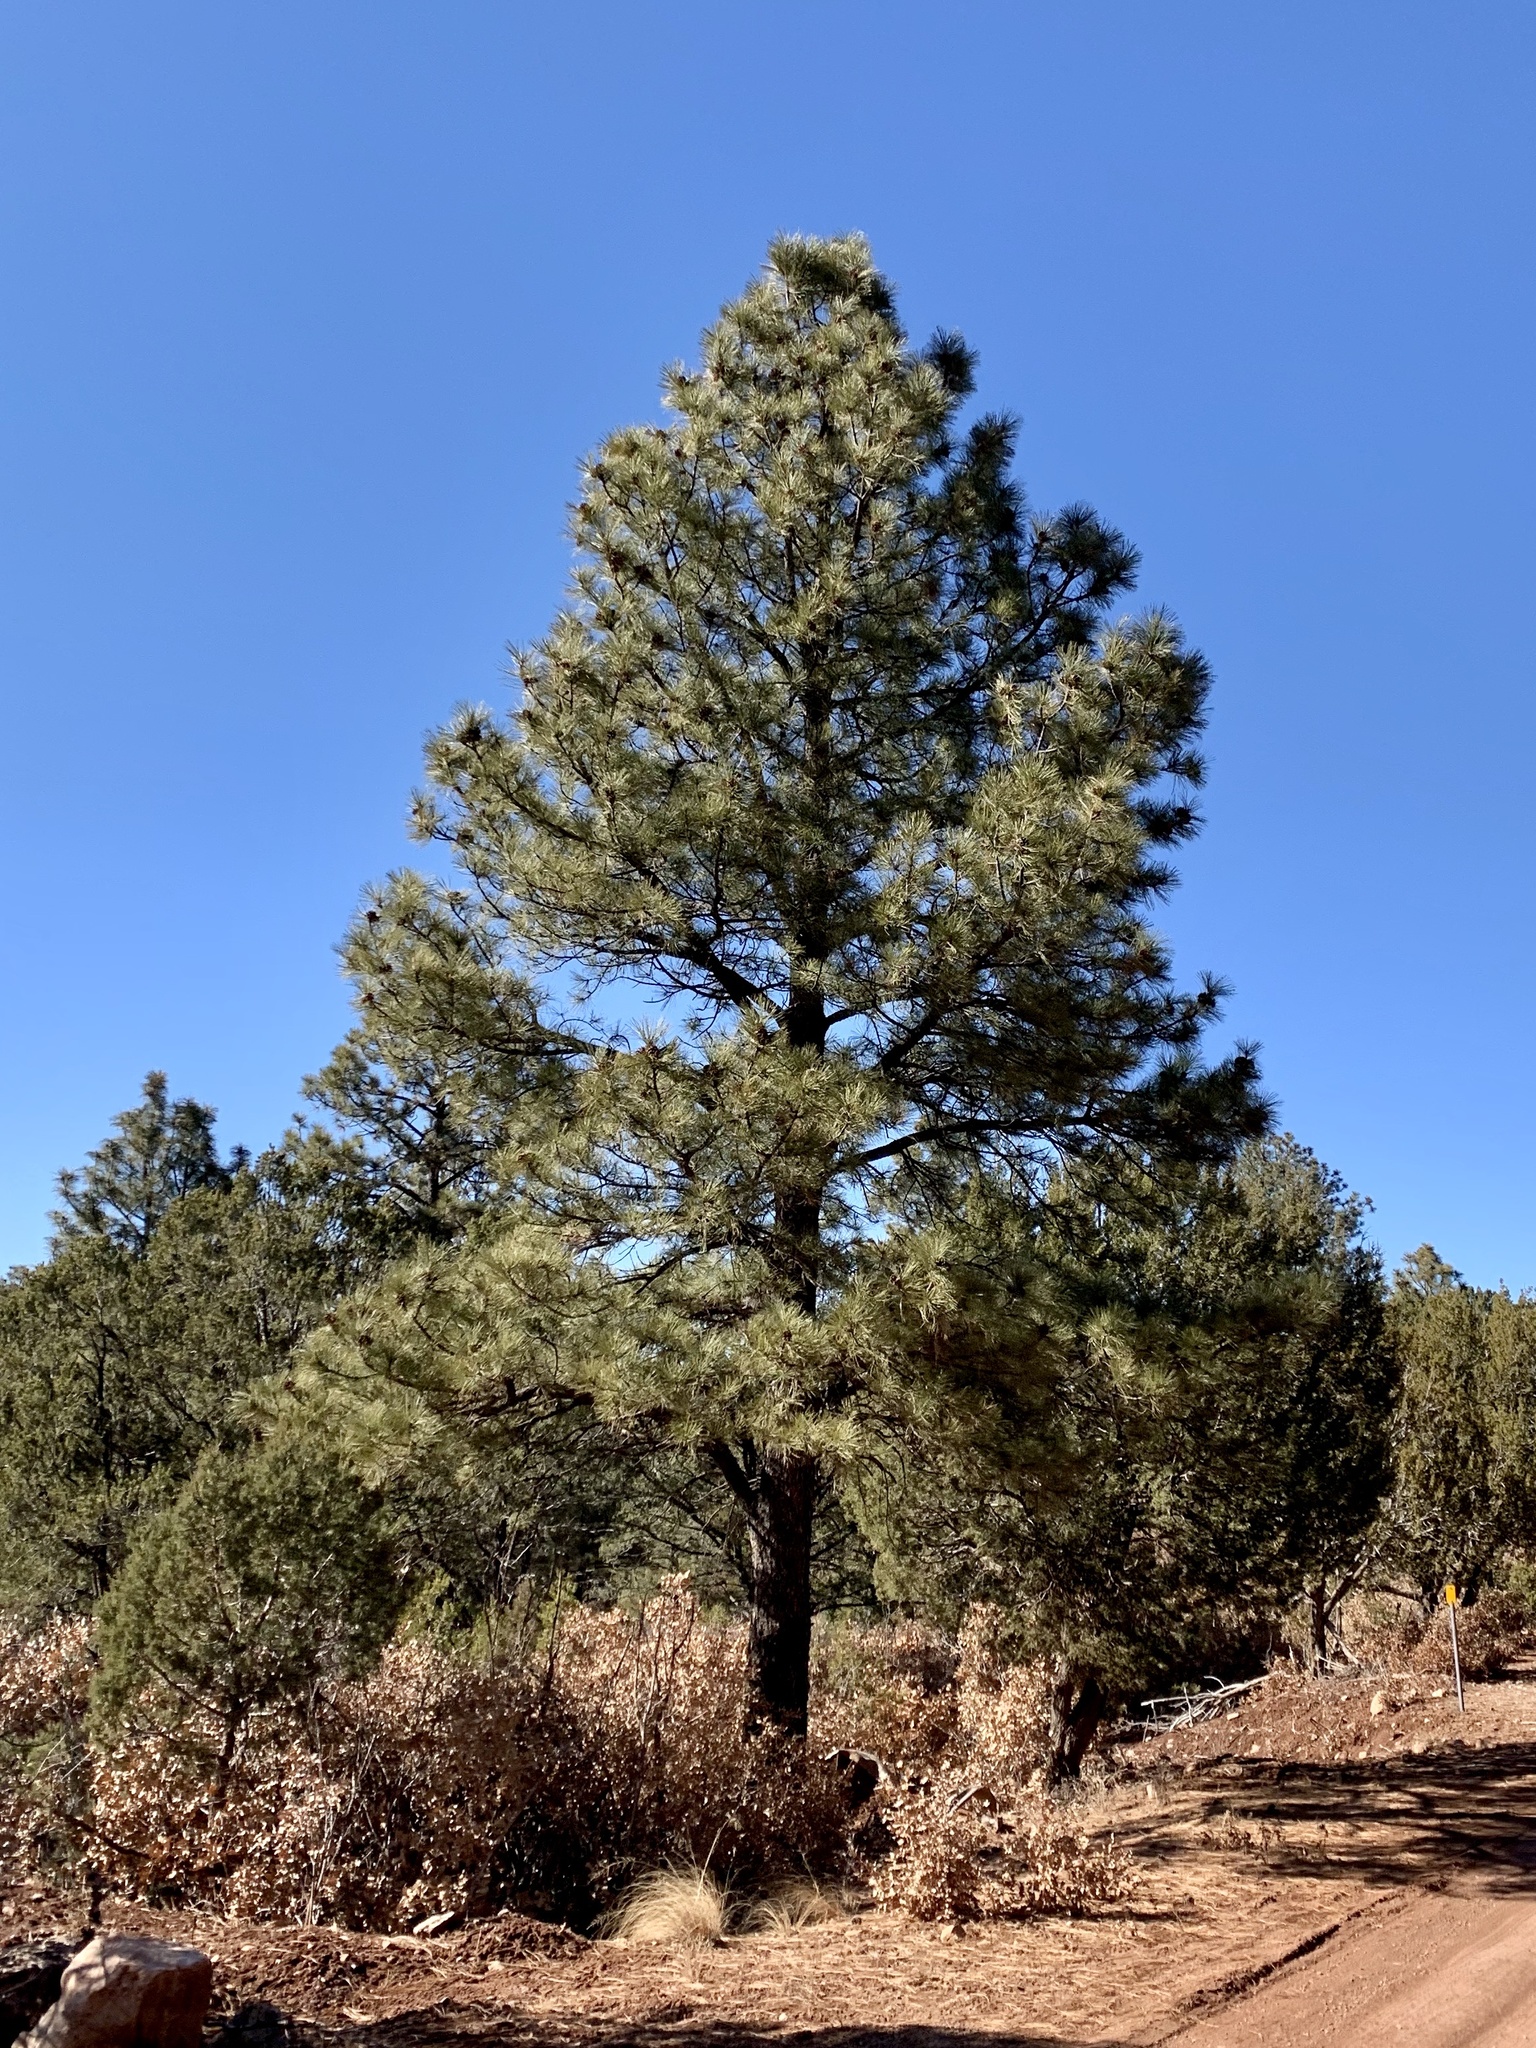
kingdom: Plantae
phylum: Tracheophyta
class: Pinopsida
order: Pinales
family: Pinaceae
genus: Pinus
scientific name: Pinus ponderosa
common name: Western yellow-pine
